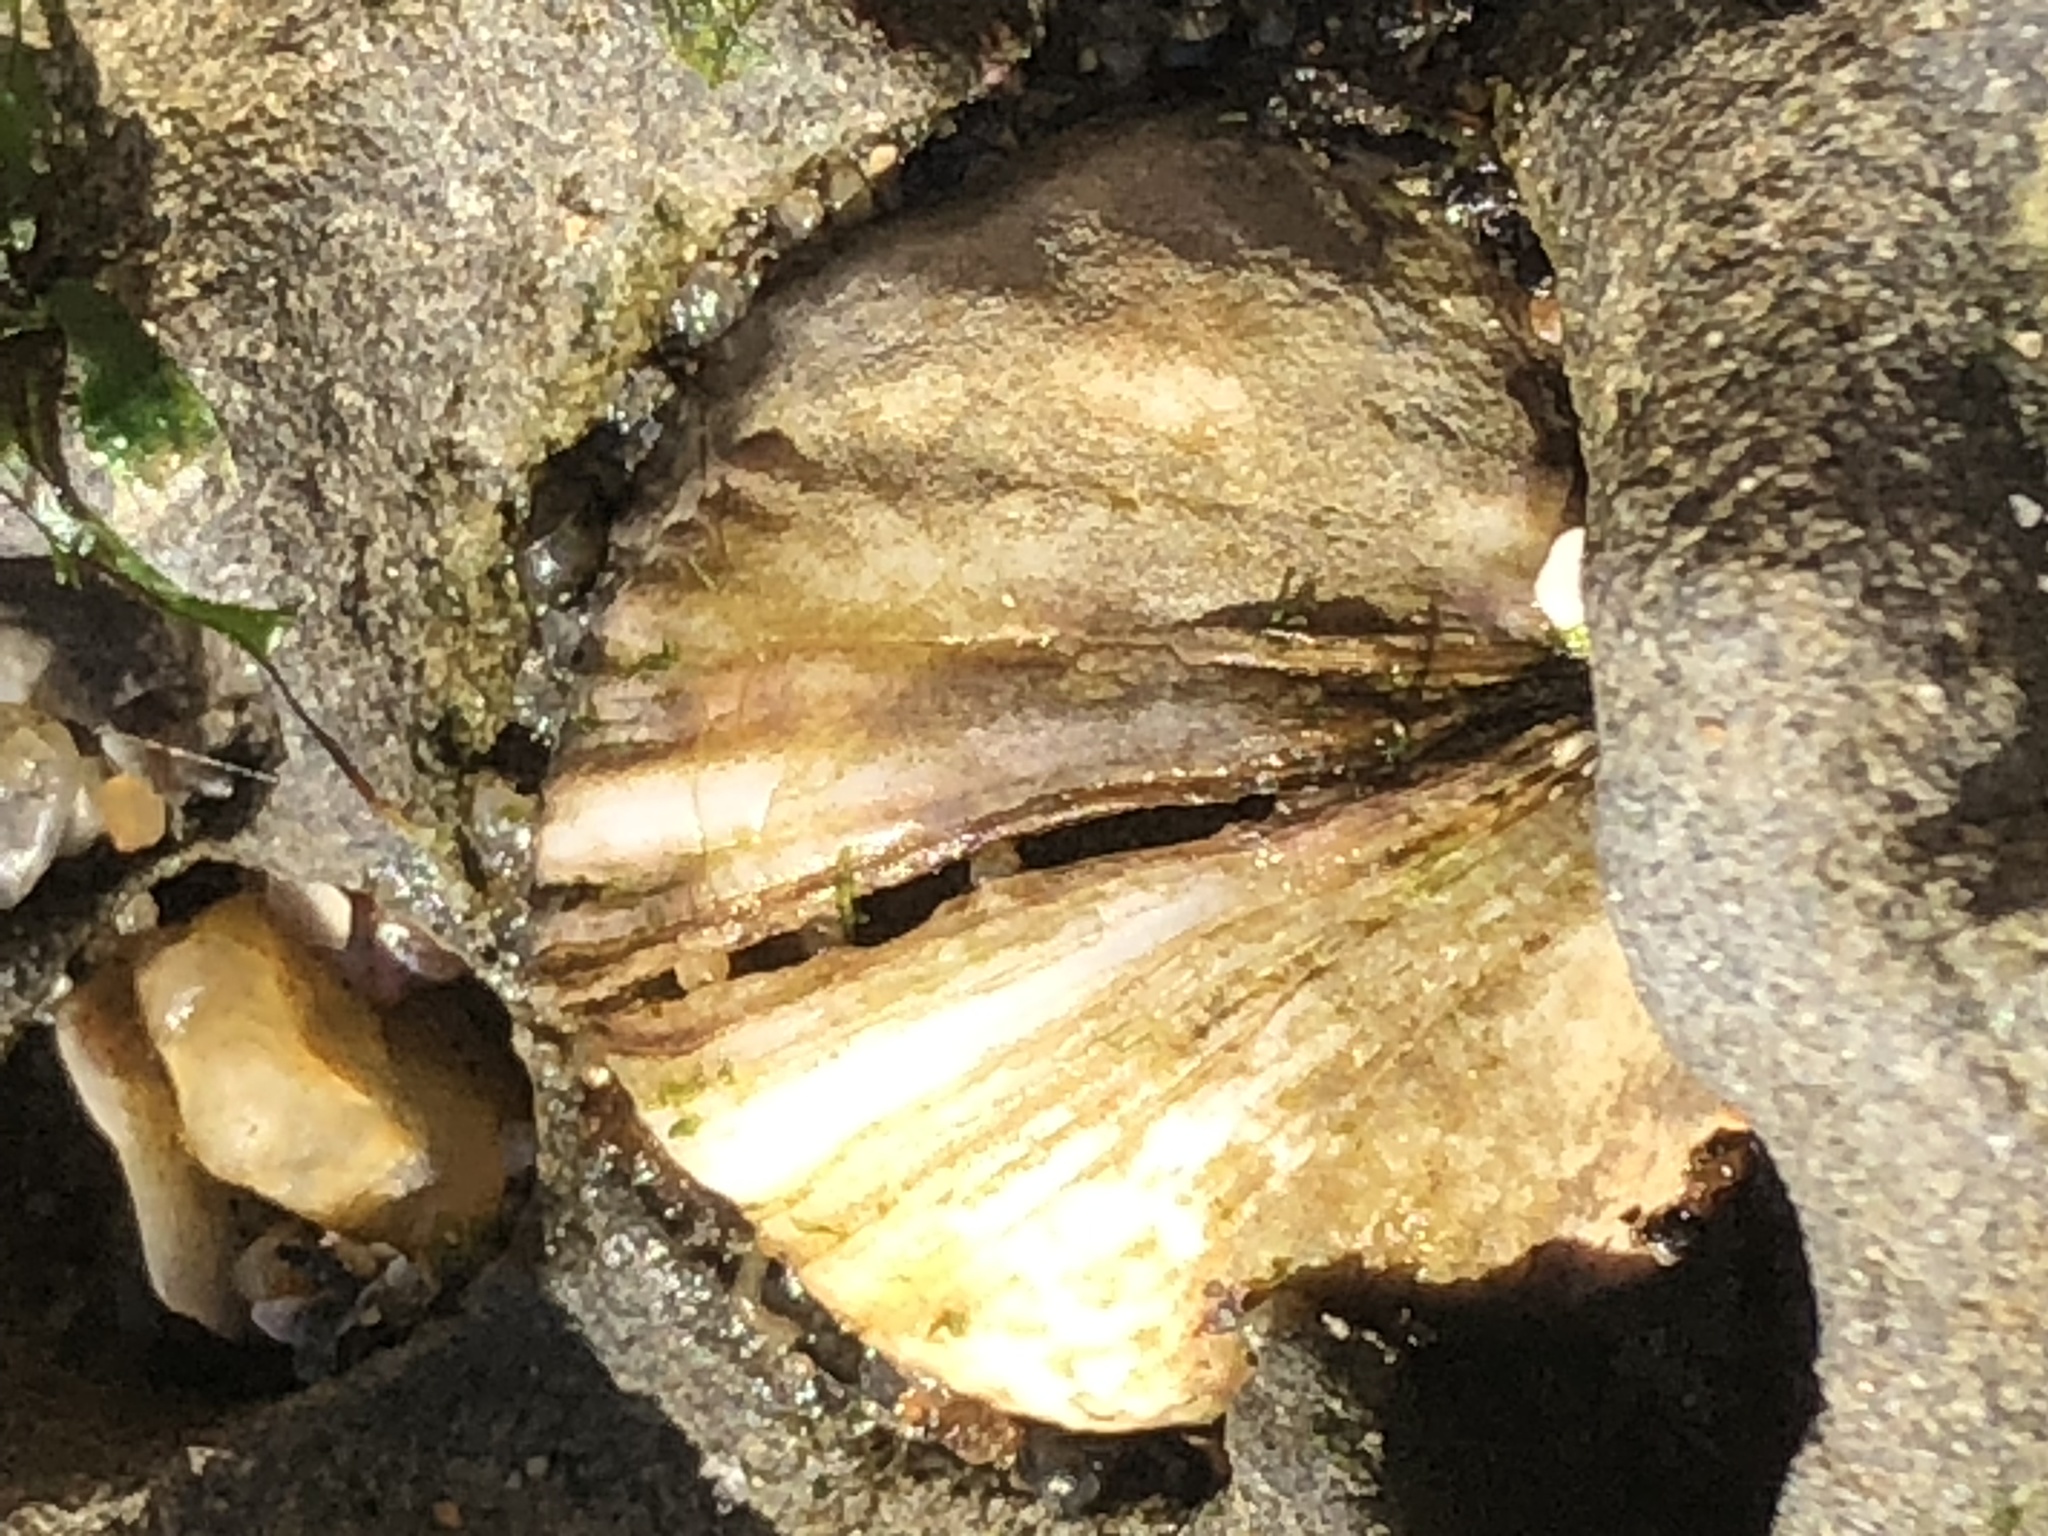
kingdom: Animalia
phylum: Mollusca
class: Bivalvia
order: Venerida
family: Veneridae
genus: Petricola
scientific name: Petricola carditoides
